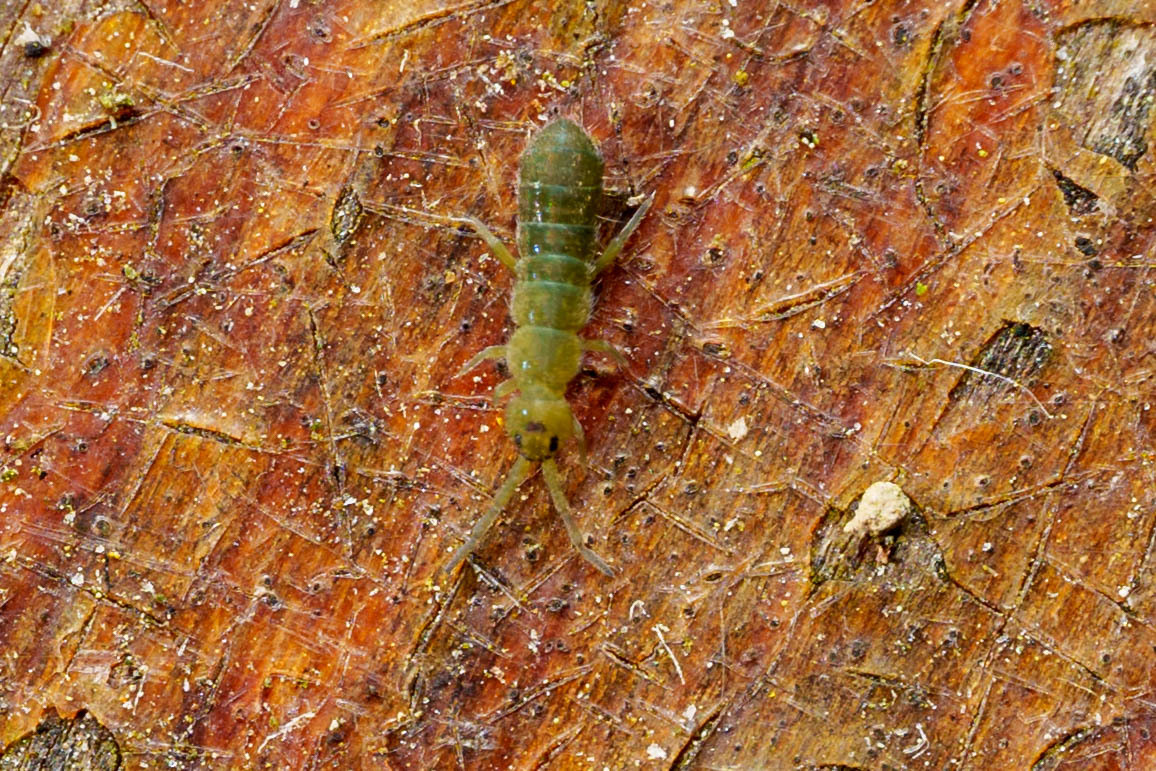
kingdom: Animalia
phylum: Arthropoda
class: Collembola
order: Entomobryomorpha
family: Isotomidae
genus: Isotoma
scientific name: Isotoma viridis
